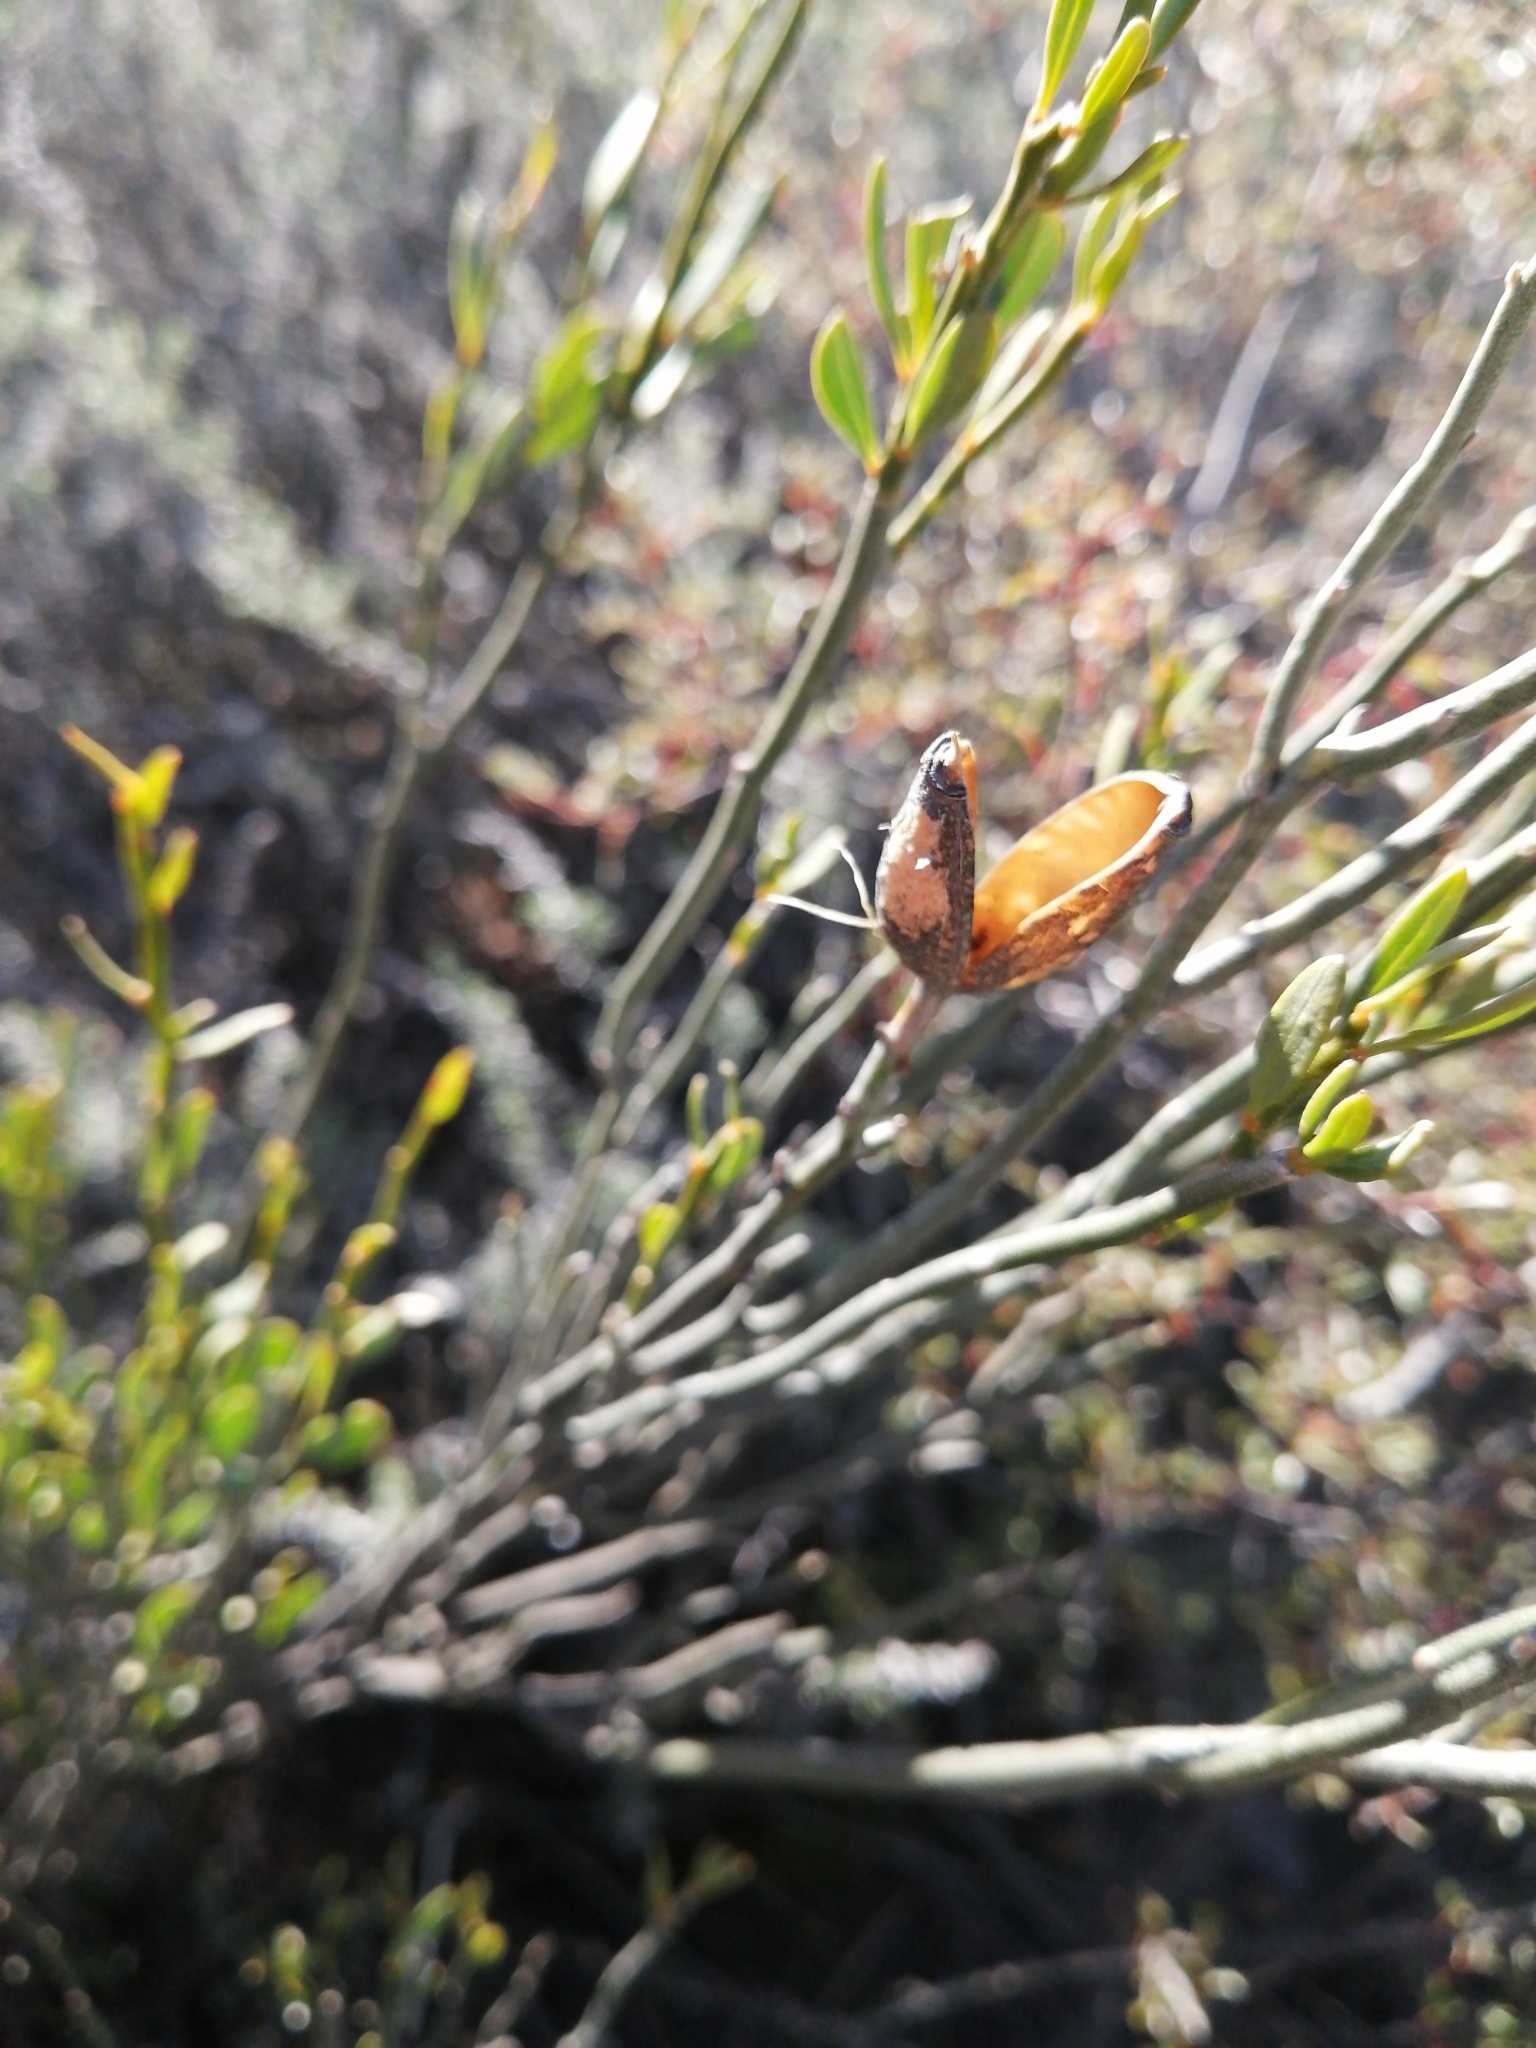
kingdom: Plantae
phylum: Tracheophyta
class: Magnoliopsida
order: Solanales
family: Montiniaceae
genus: Montinia
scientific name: Montinia caryophyllacea
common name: Wild clove-bush
